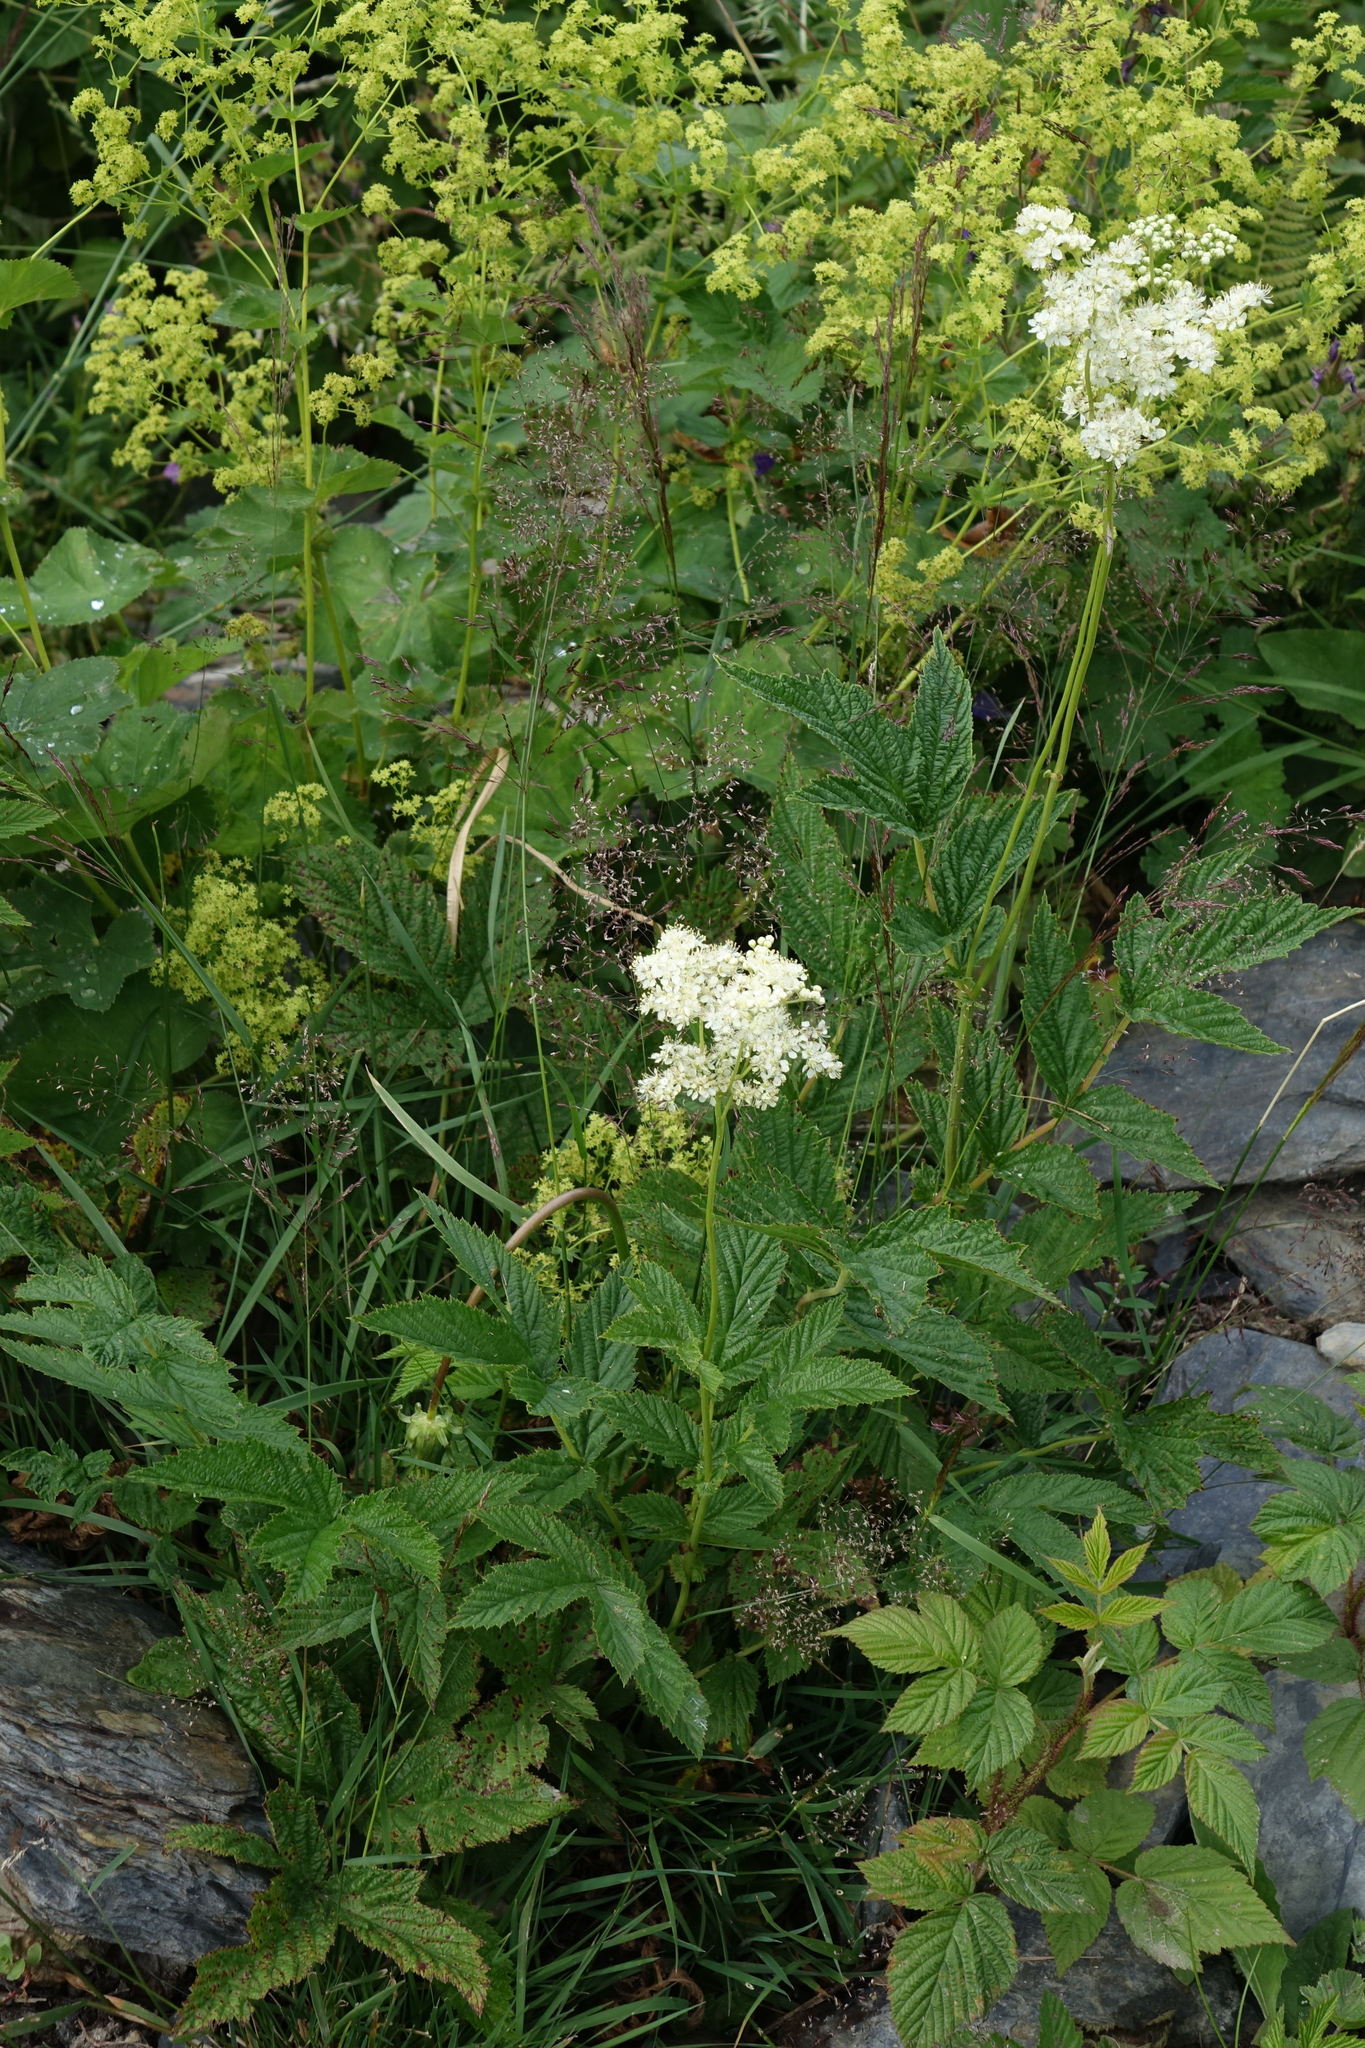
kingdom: Plantae
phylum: Tracheophyta
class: Magnoliopsida
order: Rosales
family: Rosaceae
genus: Filipendula
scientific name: Filipendula ulmaria
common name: Meadowsweet
